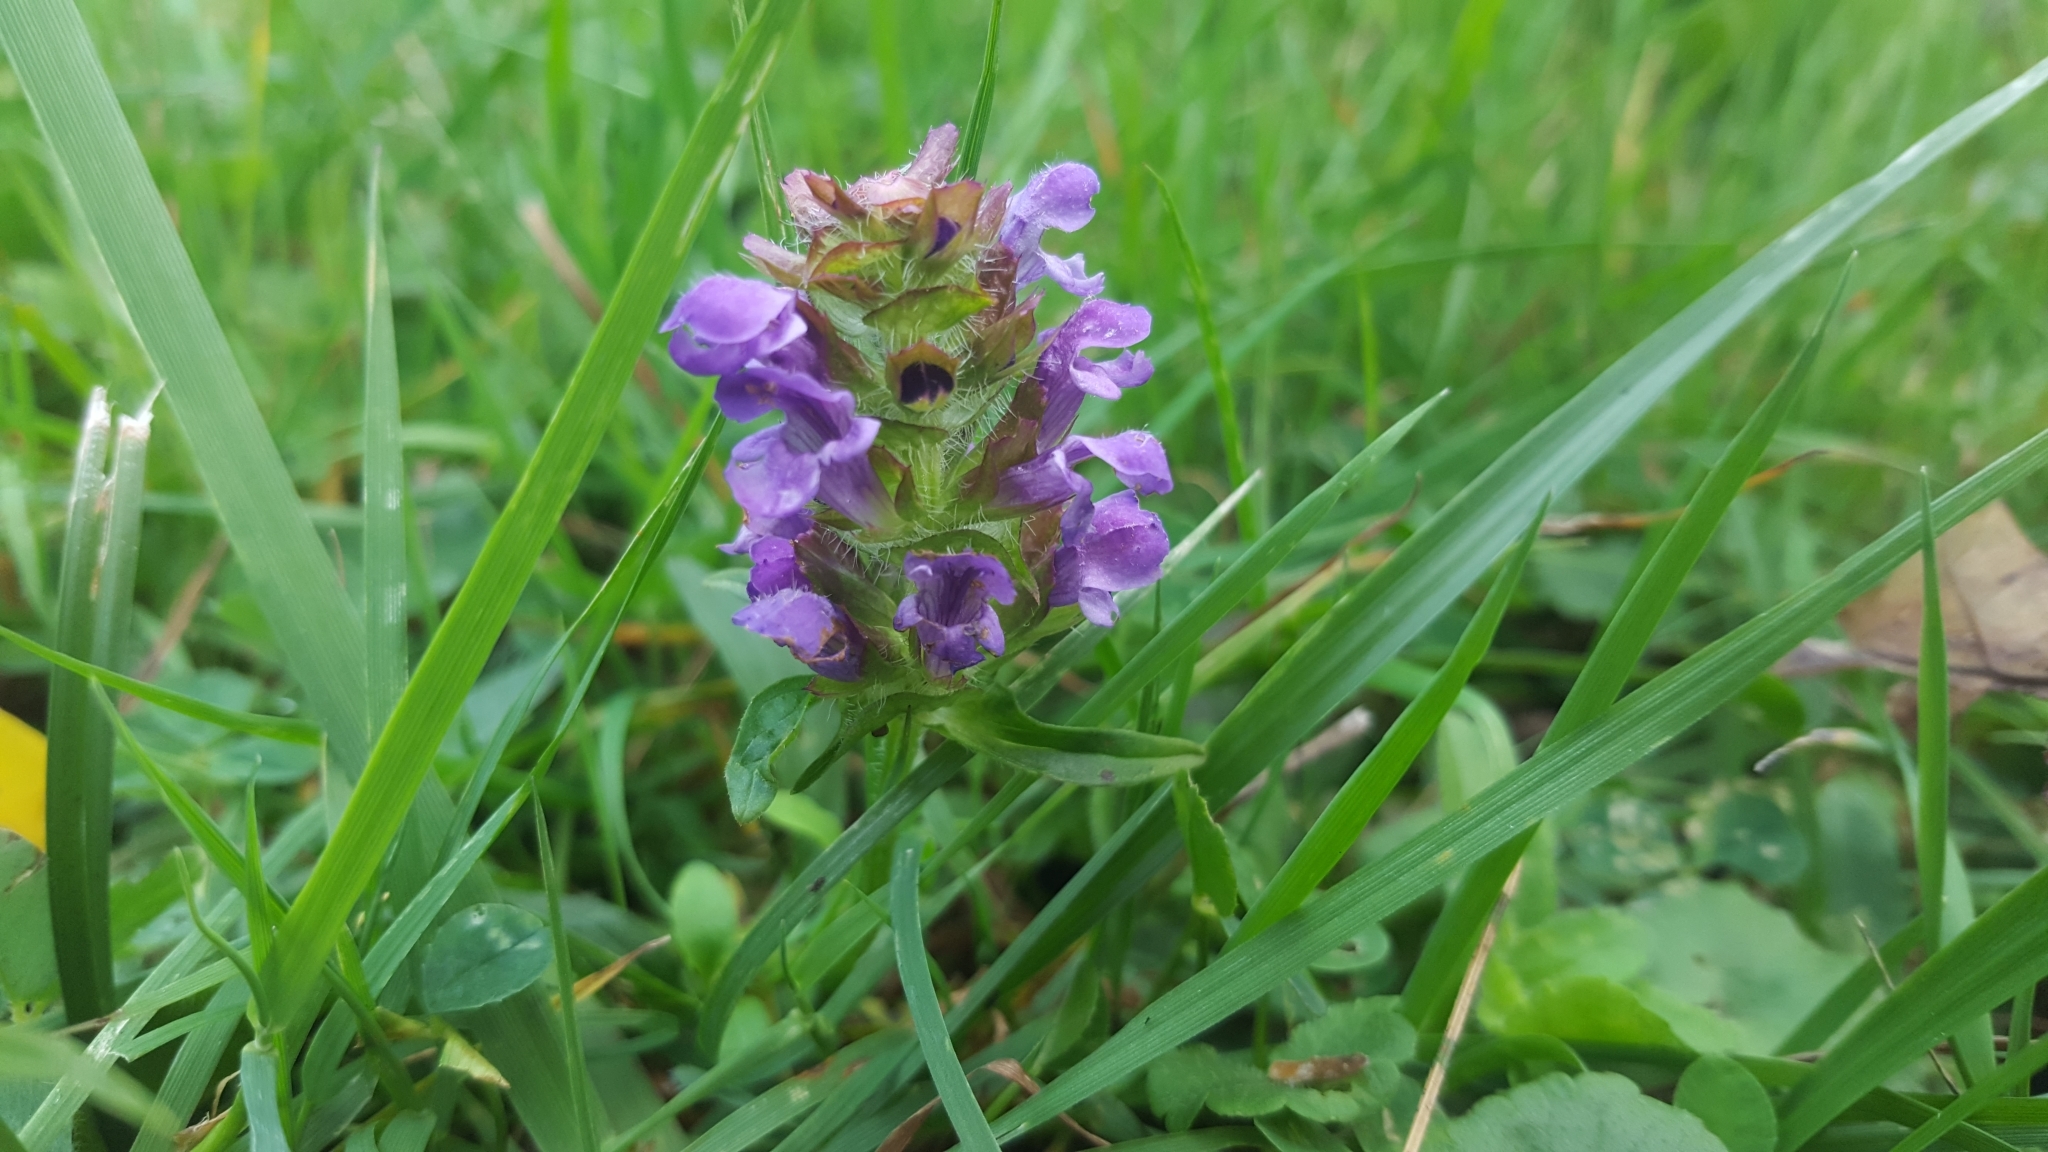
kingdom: Plantae
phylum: Tracheophyta
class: Magnoliopsida
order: Lamiales
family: Lamiaceae
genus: Prunella
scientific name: Prunella vulgaris
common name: Heal-all
